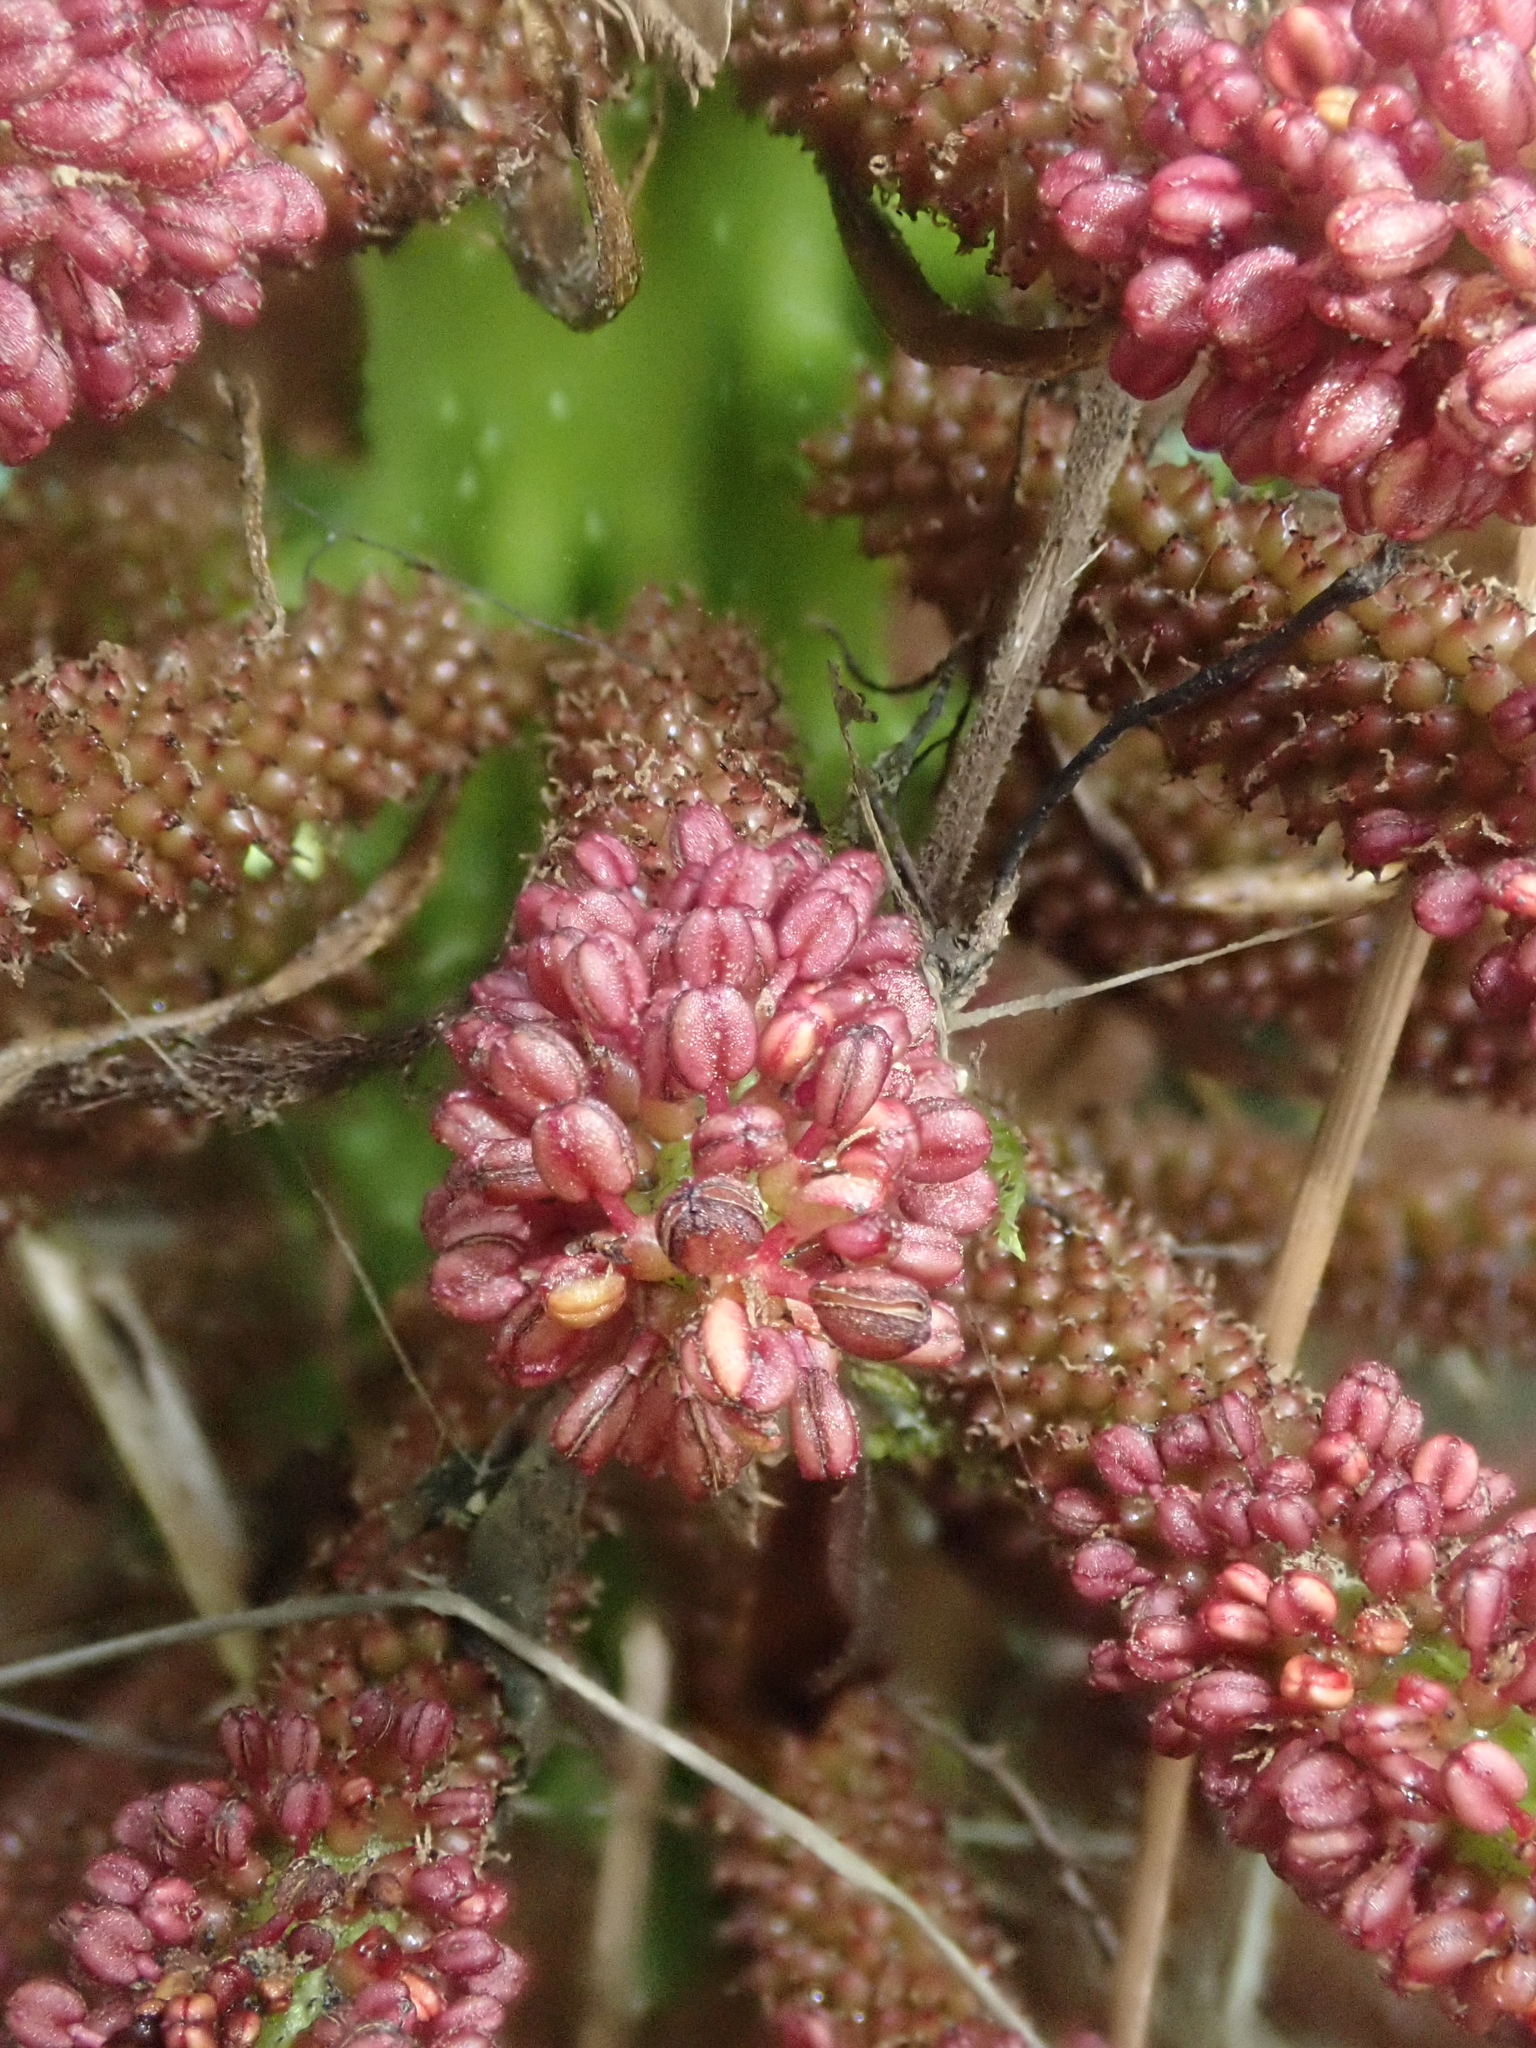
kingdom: Plantae
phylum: Tracheophyta
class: Magnoliopsida
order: Gunnerales
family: Gunneraceae
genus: Gunnera
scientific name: Gunnera tinctoria
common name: Giant-rhubarb
